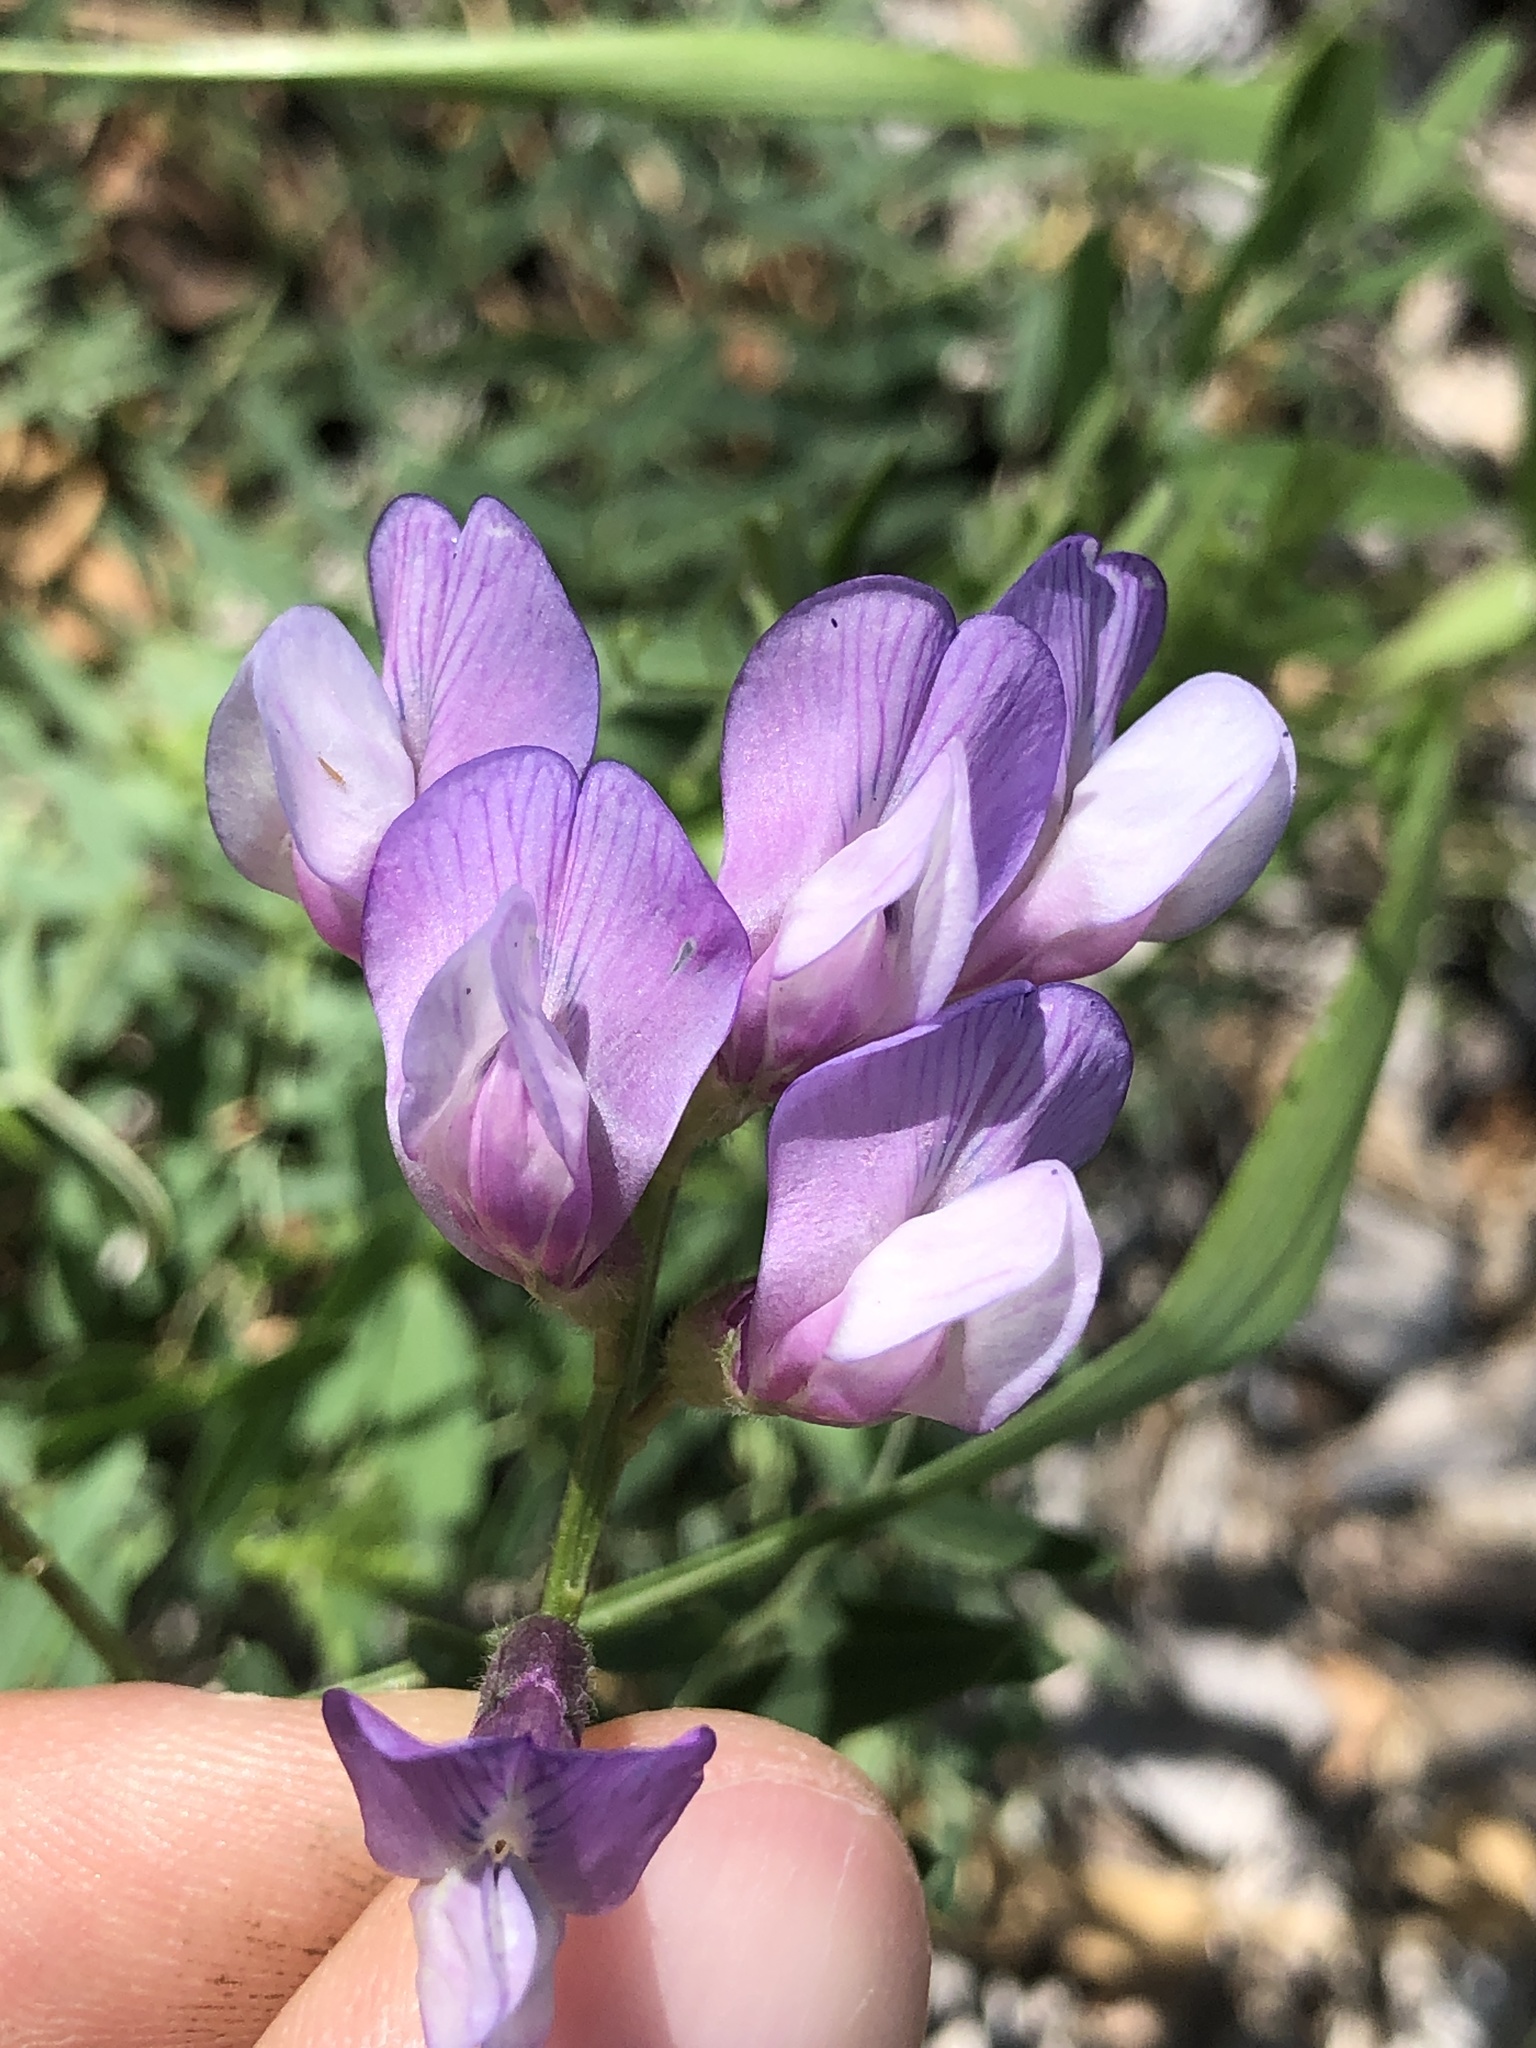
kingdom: Plantae
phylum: Tracheophyta
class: Magnoliopsida
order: Fabales
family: Fabaceae
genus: Vicia
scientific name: Vicia americana
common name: American vetch
